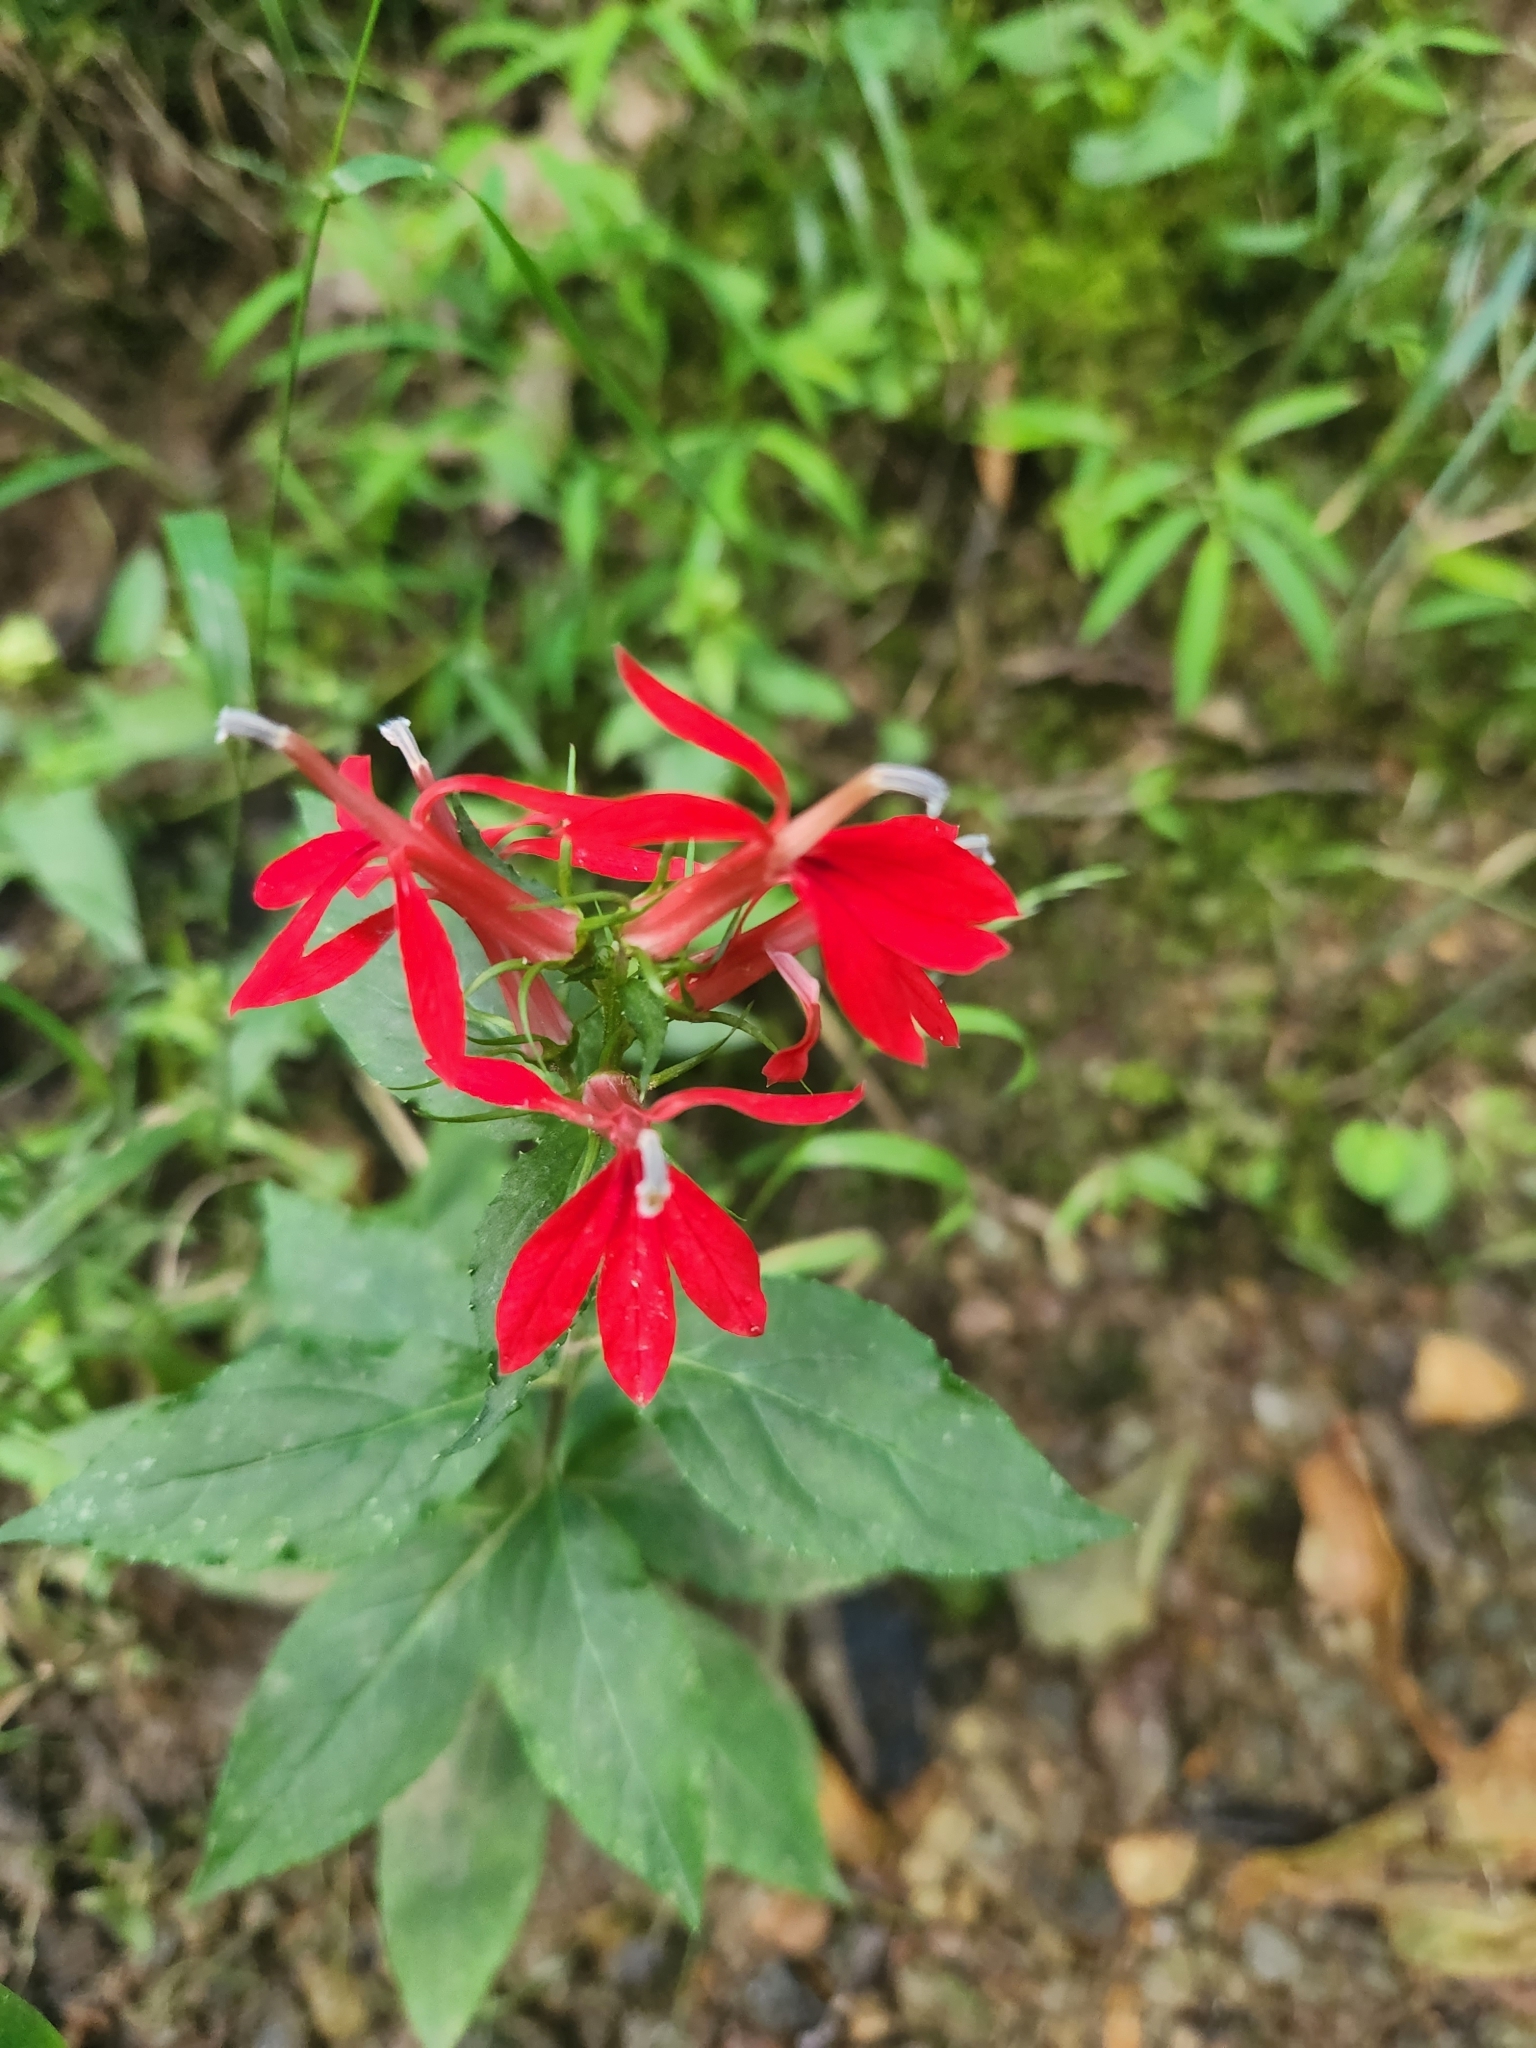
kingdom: Plantae
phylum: Tracheophyta
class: Magnoliopsida
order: Asterales
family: Campanulaceae
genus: Lobelia
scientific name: Lobelia cardinalis
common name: Cardinal flower
